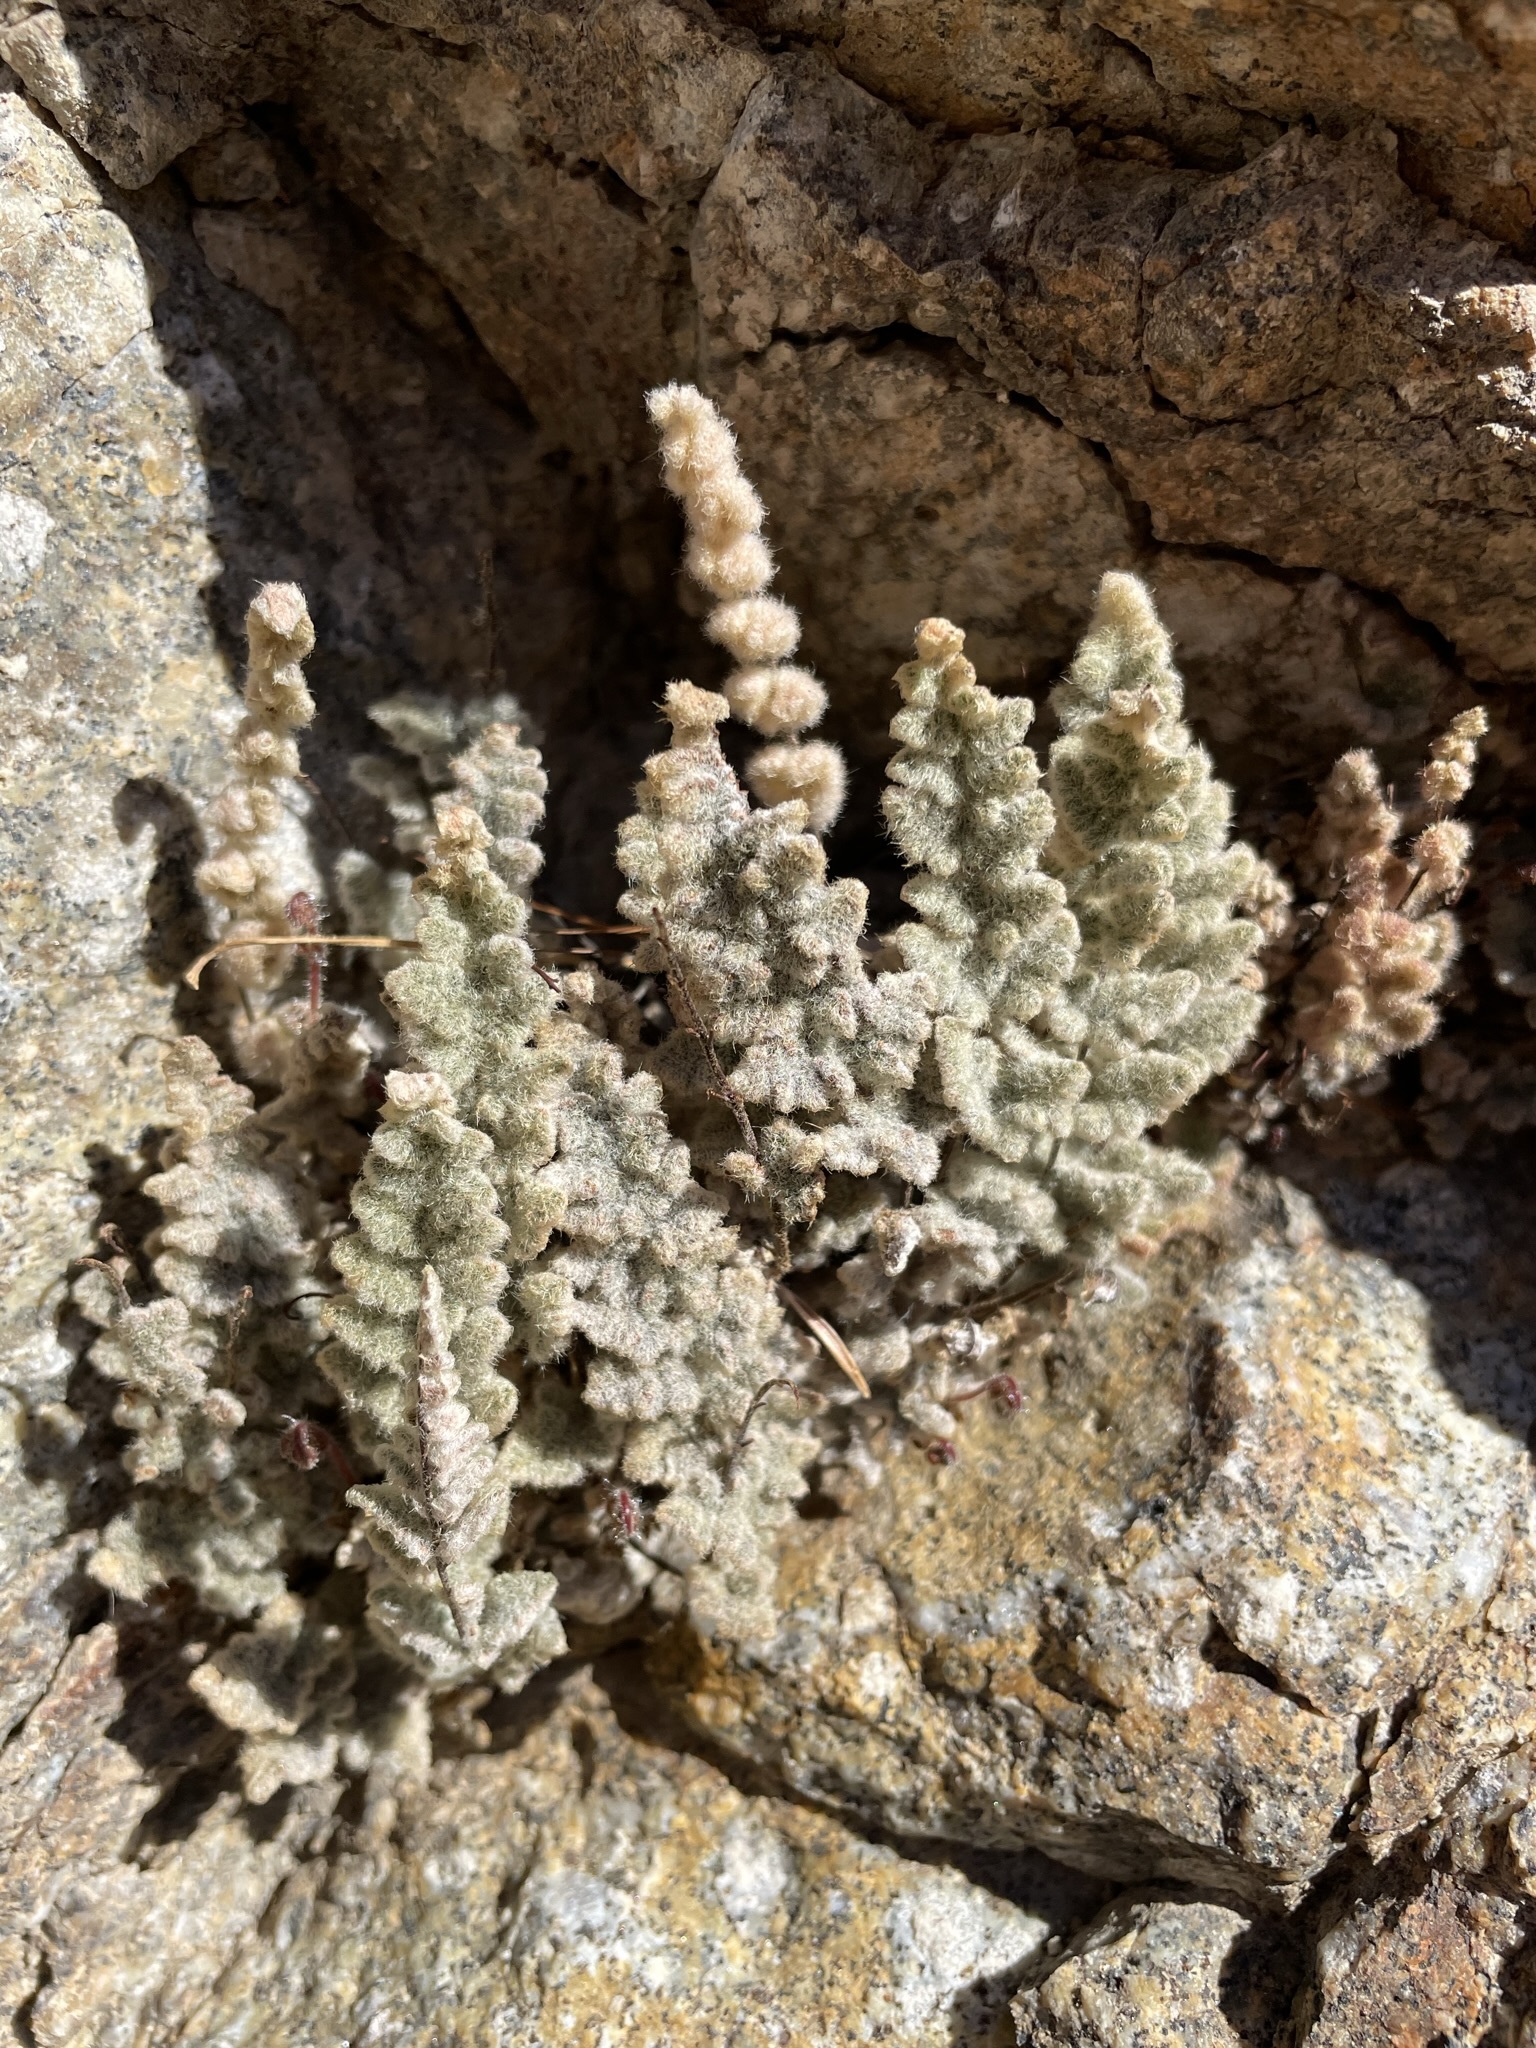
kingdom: Plantae
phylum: Tracheophyta
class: Polypodiopsida
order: Polypodiales
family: Pteridaceae
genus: Myriopteris
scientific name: Myriopteris parryi
